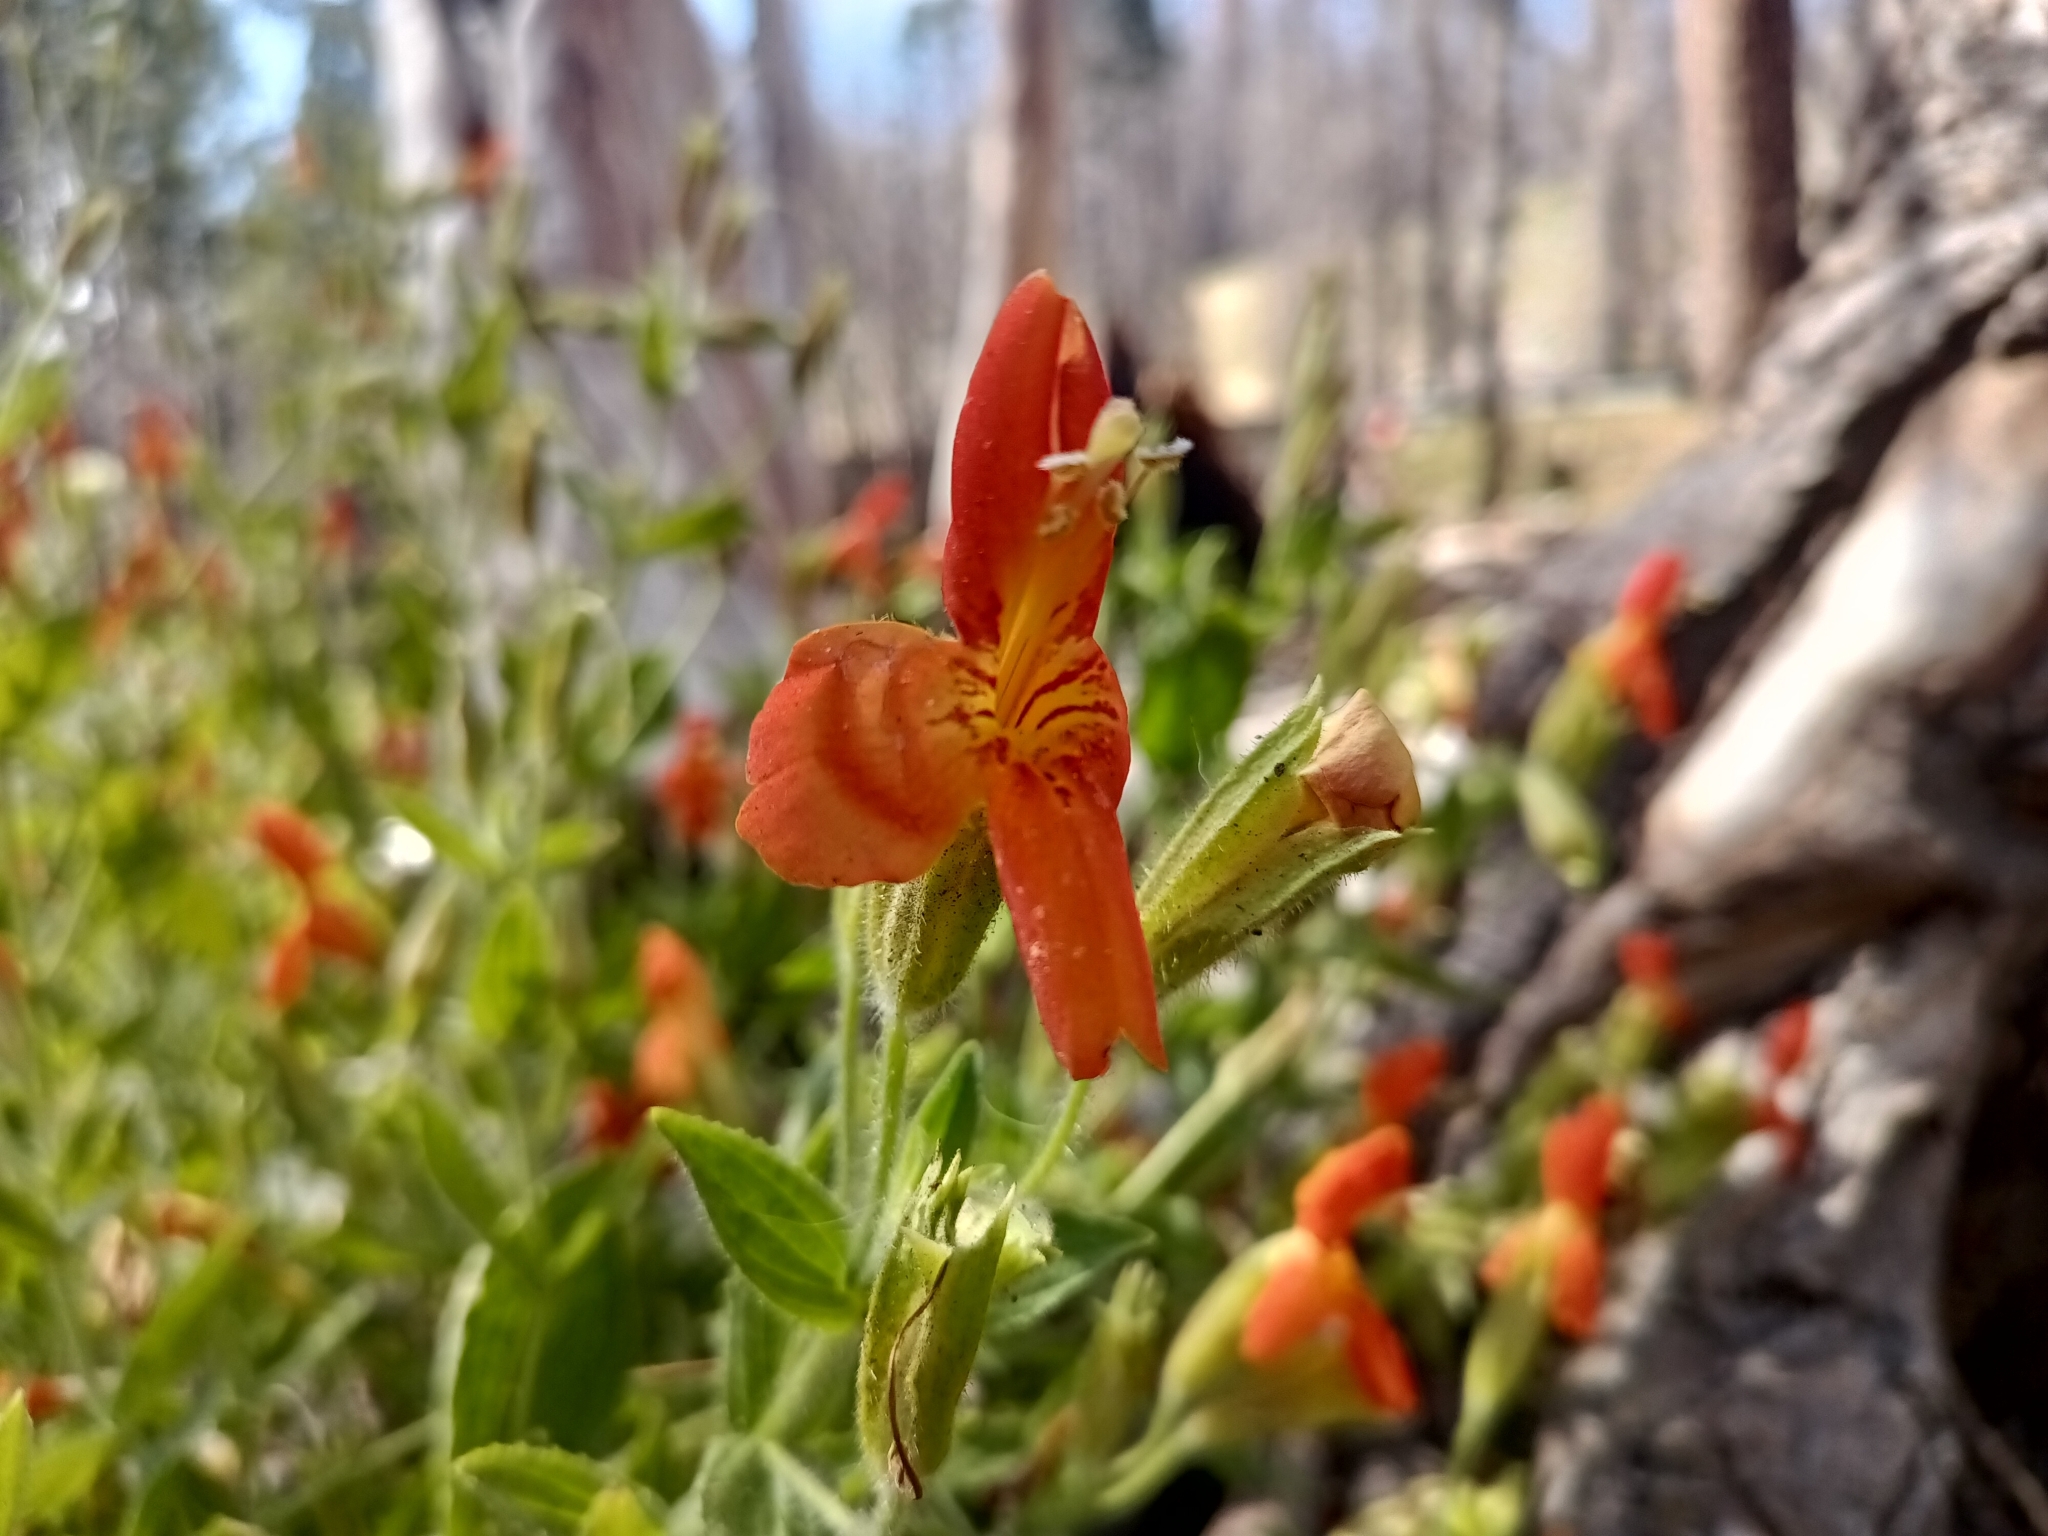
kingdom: Plantae
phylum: Tracheophyta
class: Magnoliopsida
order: Lamiales
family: Phrymaceae
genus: Erythranthe
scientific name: Erythranthe cardinalis
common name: Scarlet monkey-flower
